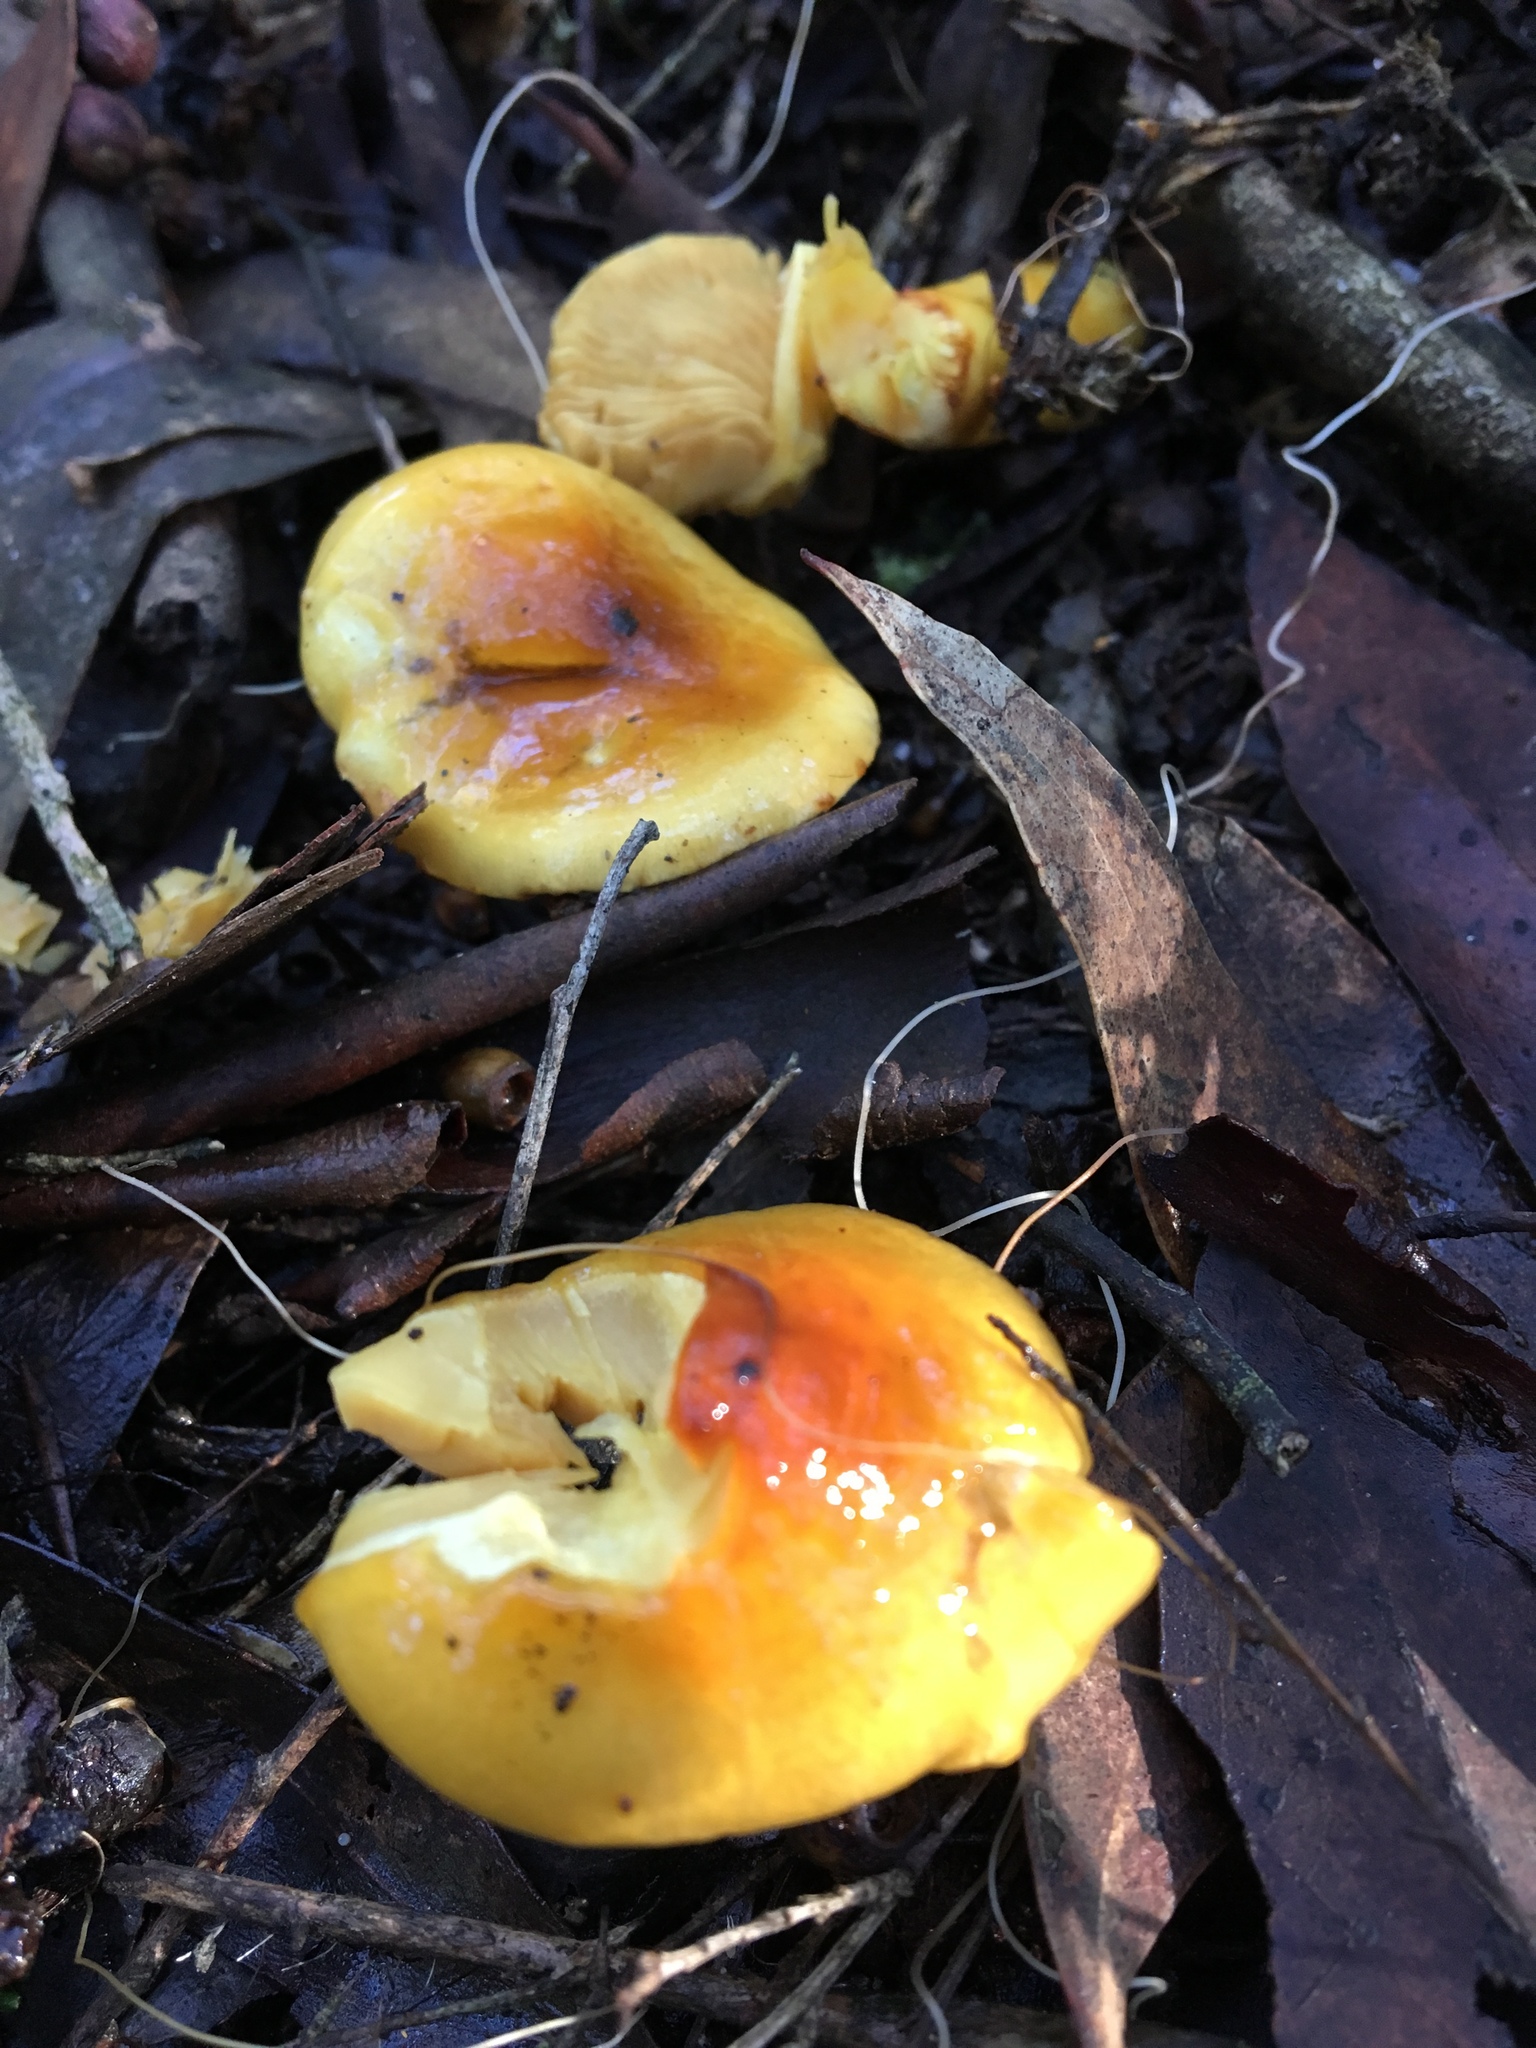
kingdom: Fungi
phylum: Basidiomycota
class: Agaricomycetes
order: Agaricales
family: Cortinariaceae
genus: Cortinarius
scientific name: Cortinarius sinapicolor
